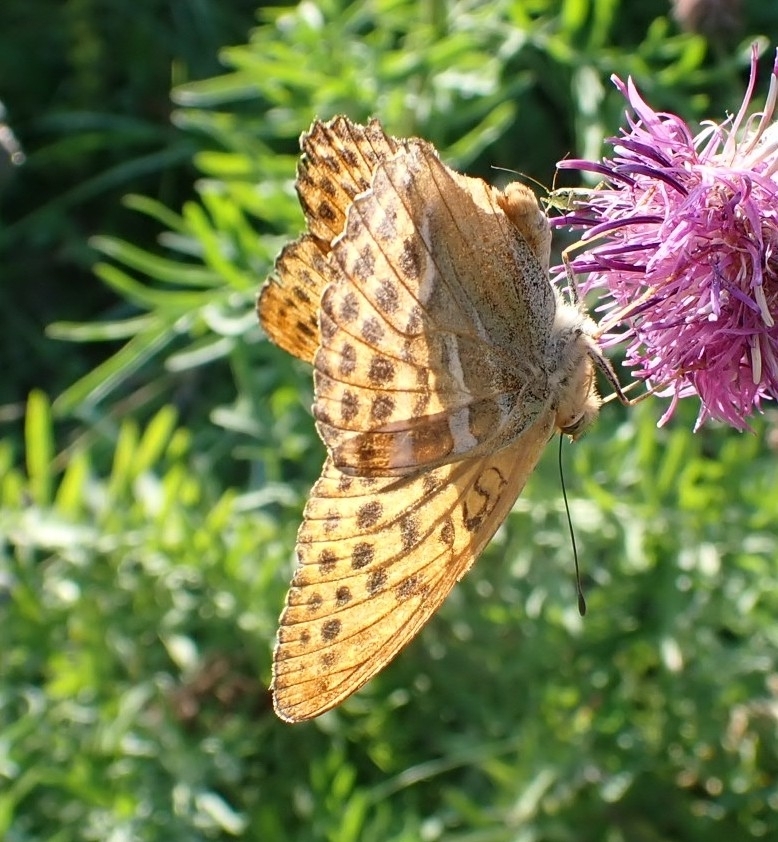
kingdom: Animalia
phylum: Arthropoda
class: Insecta
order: Lepidoptera
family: Nymphalidae
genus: Argynnis
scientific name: Argynnis paphia
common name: Silver-washed fritillary
